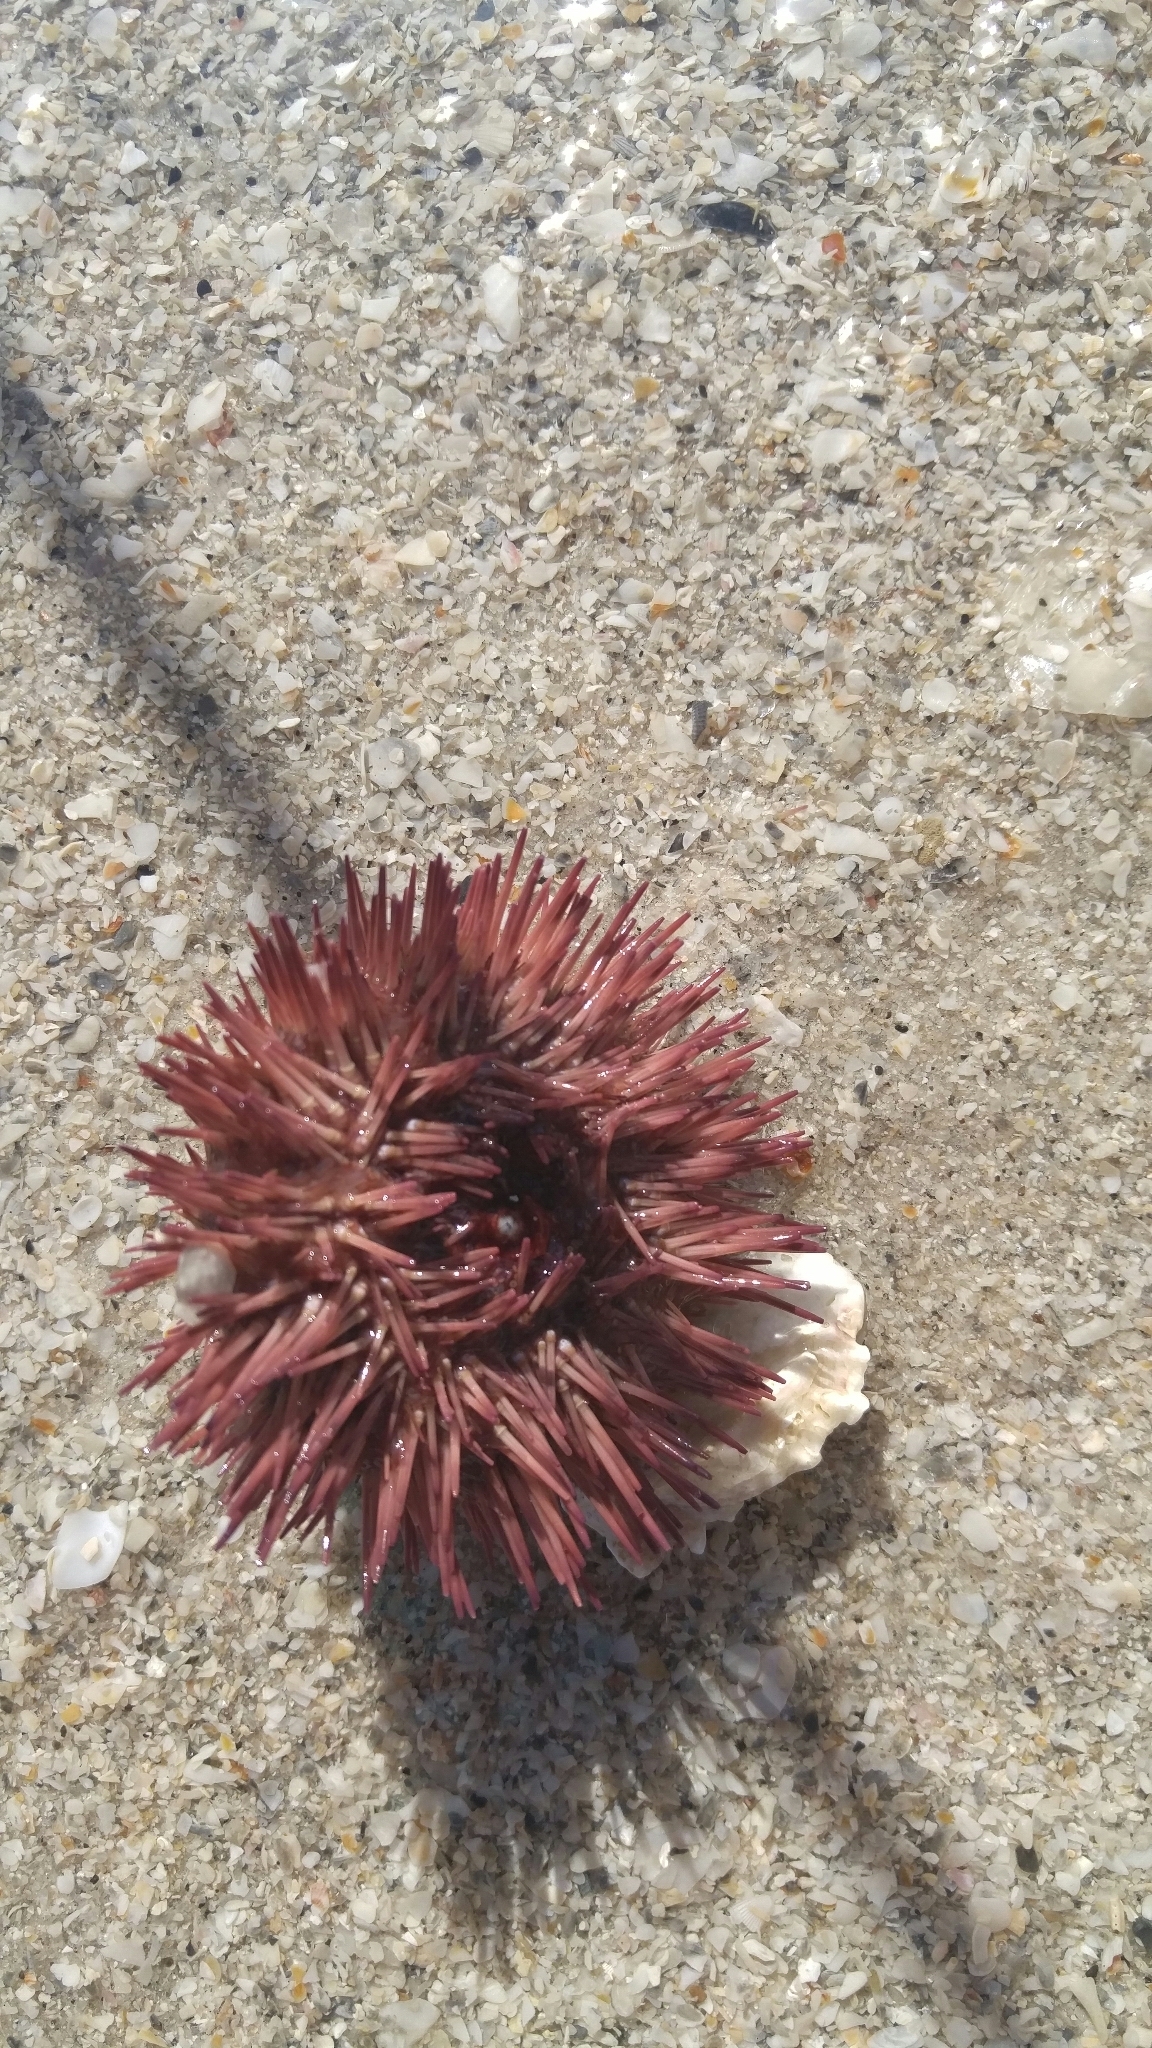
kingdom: Animalia
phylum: Echinodermata
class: Echinoidea
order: Camarodonta
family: Toxopneustidae
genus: Lytechinus
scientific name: Lytechinus variegatus
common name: Variegated urchin
